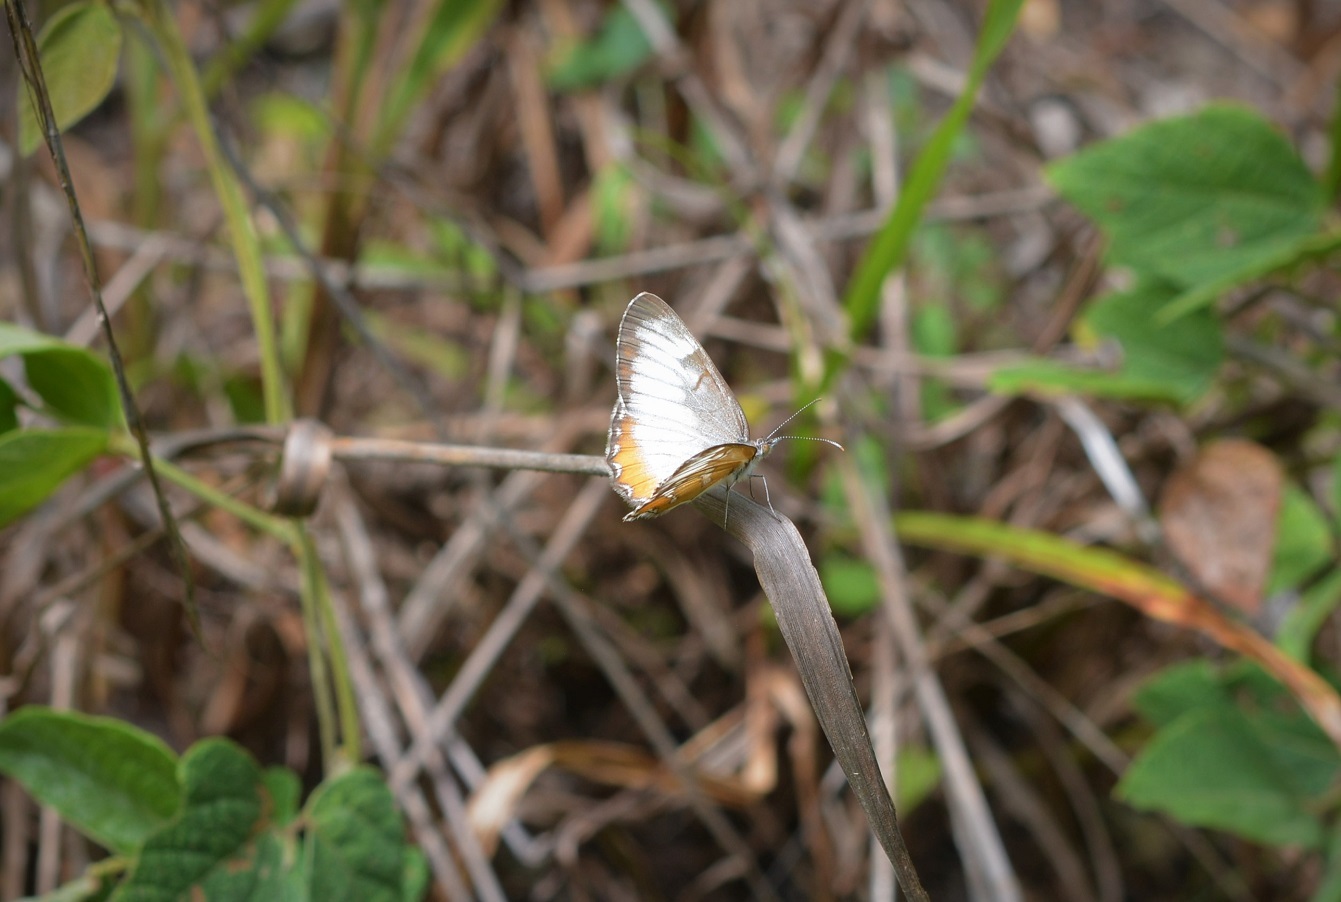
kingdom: Animalia
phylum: Arthropoda
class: Insecta
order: Lepidoptera
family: Nymphalidae
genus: Mestra
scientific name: Mestra amymone
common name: Common mestra
